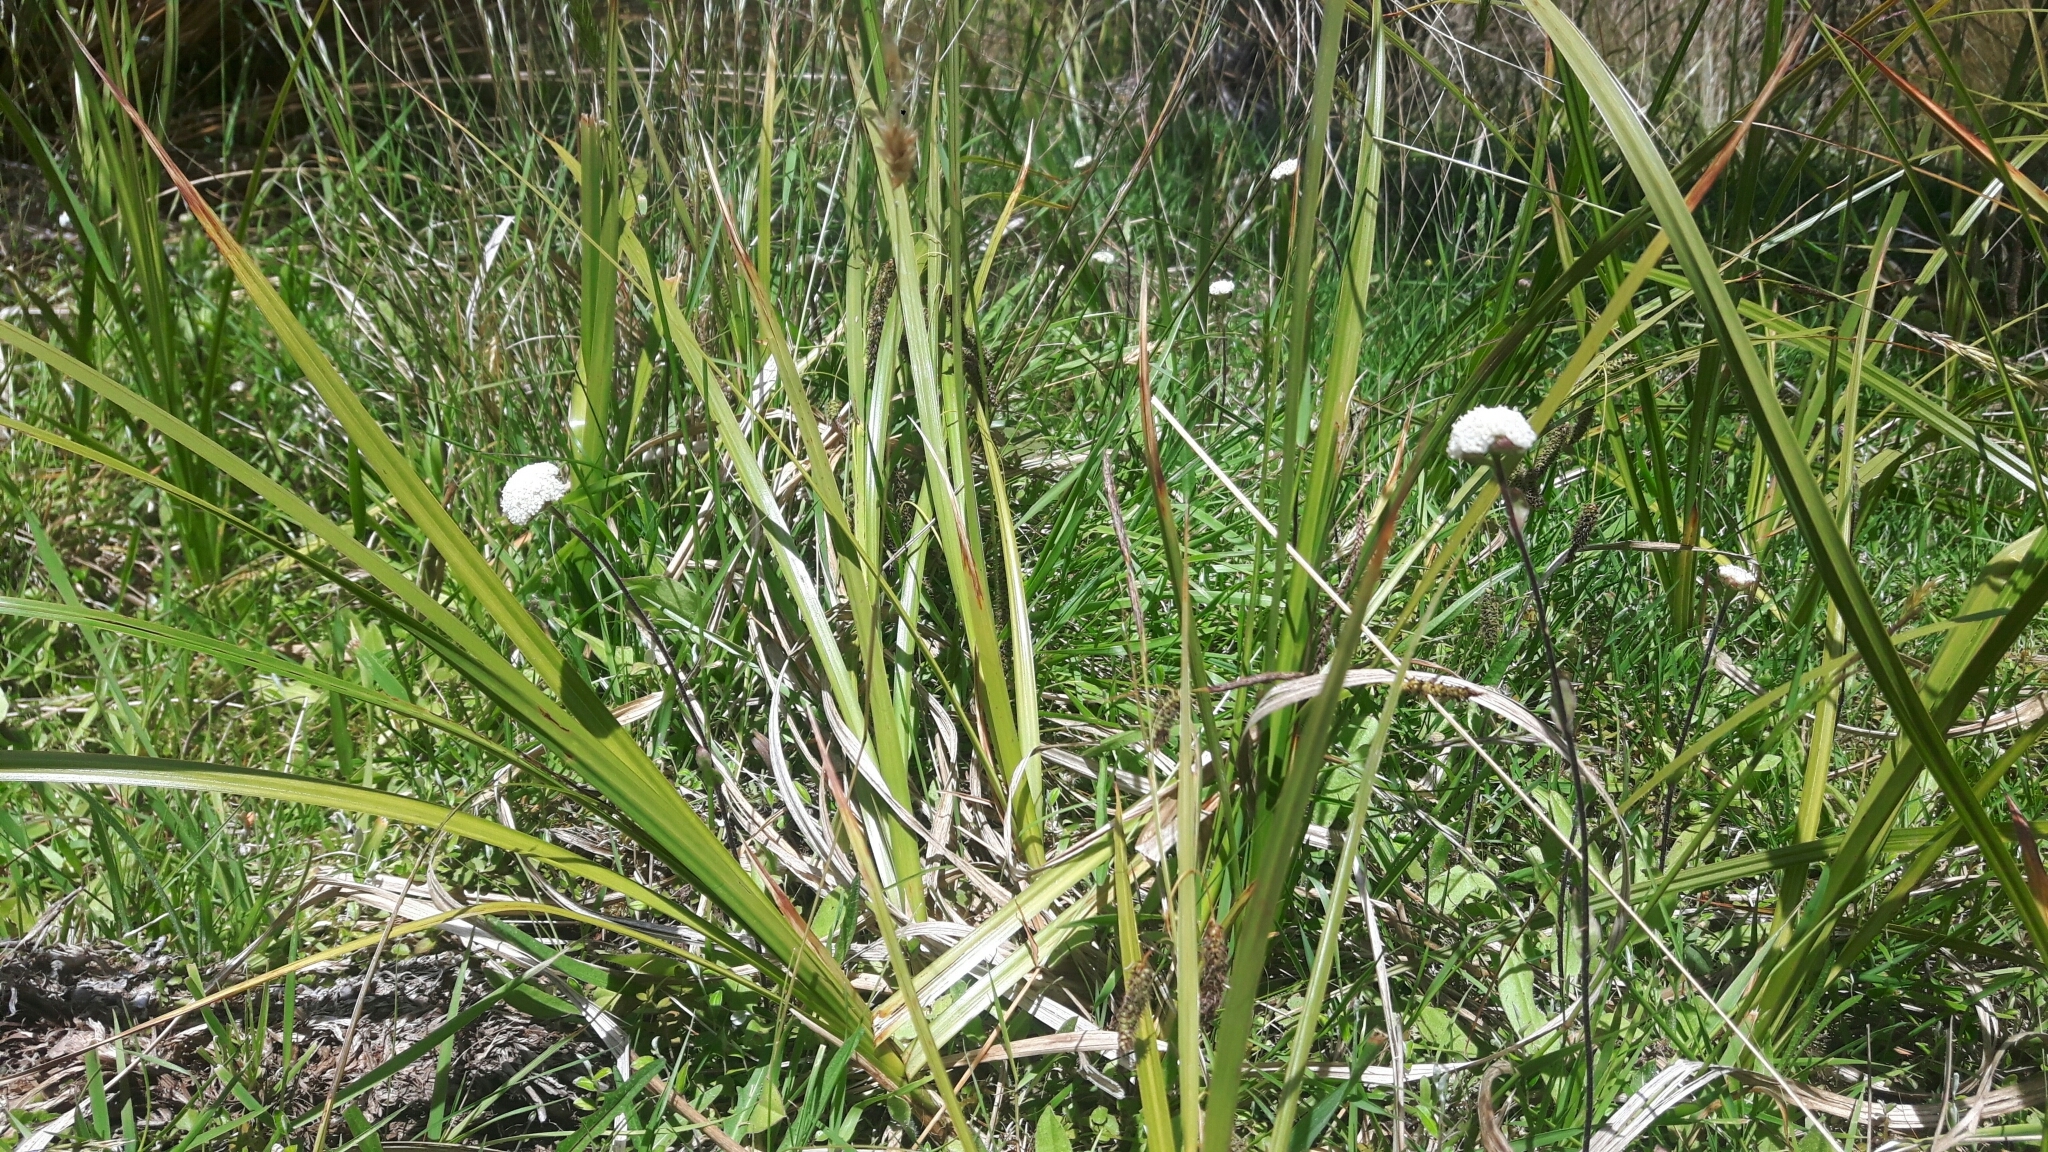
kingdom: Plantae
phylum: Tracheophyta
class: Magnoliopsida
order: Asterales
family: Asteraceae
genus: Craspedia
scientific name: Craspedia uniflora
